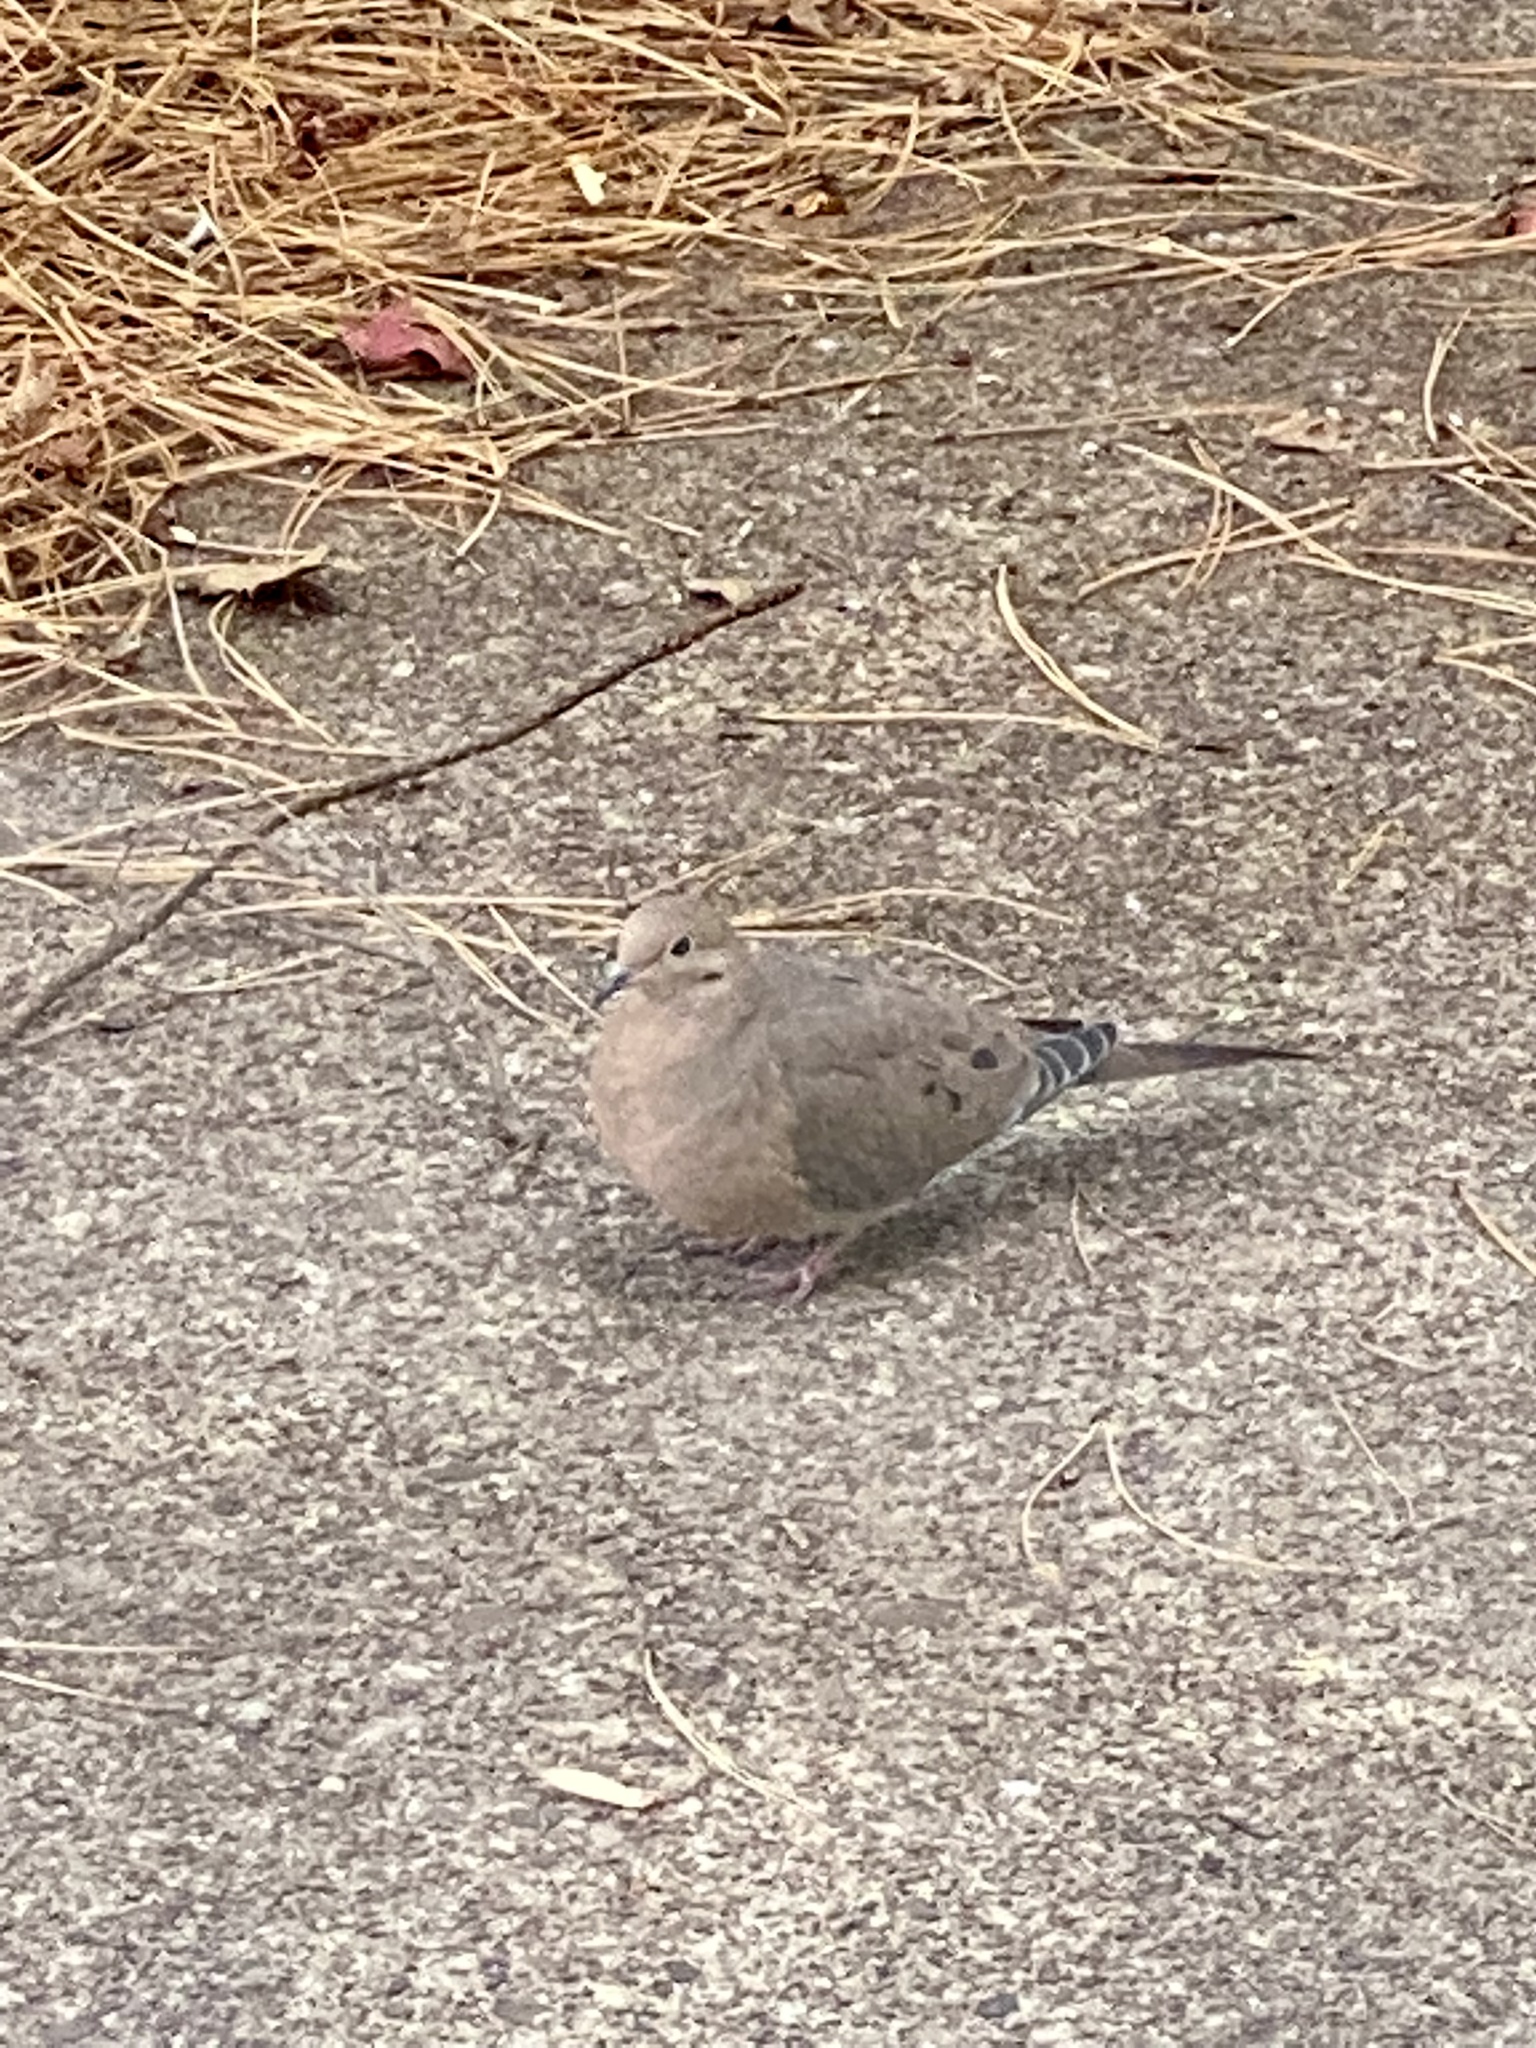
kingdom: Animalia
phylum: Chordata
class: Aves
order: Columbiformes
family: Columbidae
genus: Zenaida
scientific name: Zenaida macroura
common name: Mourning dove
